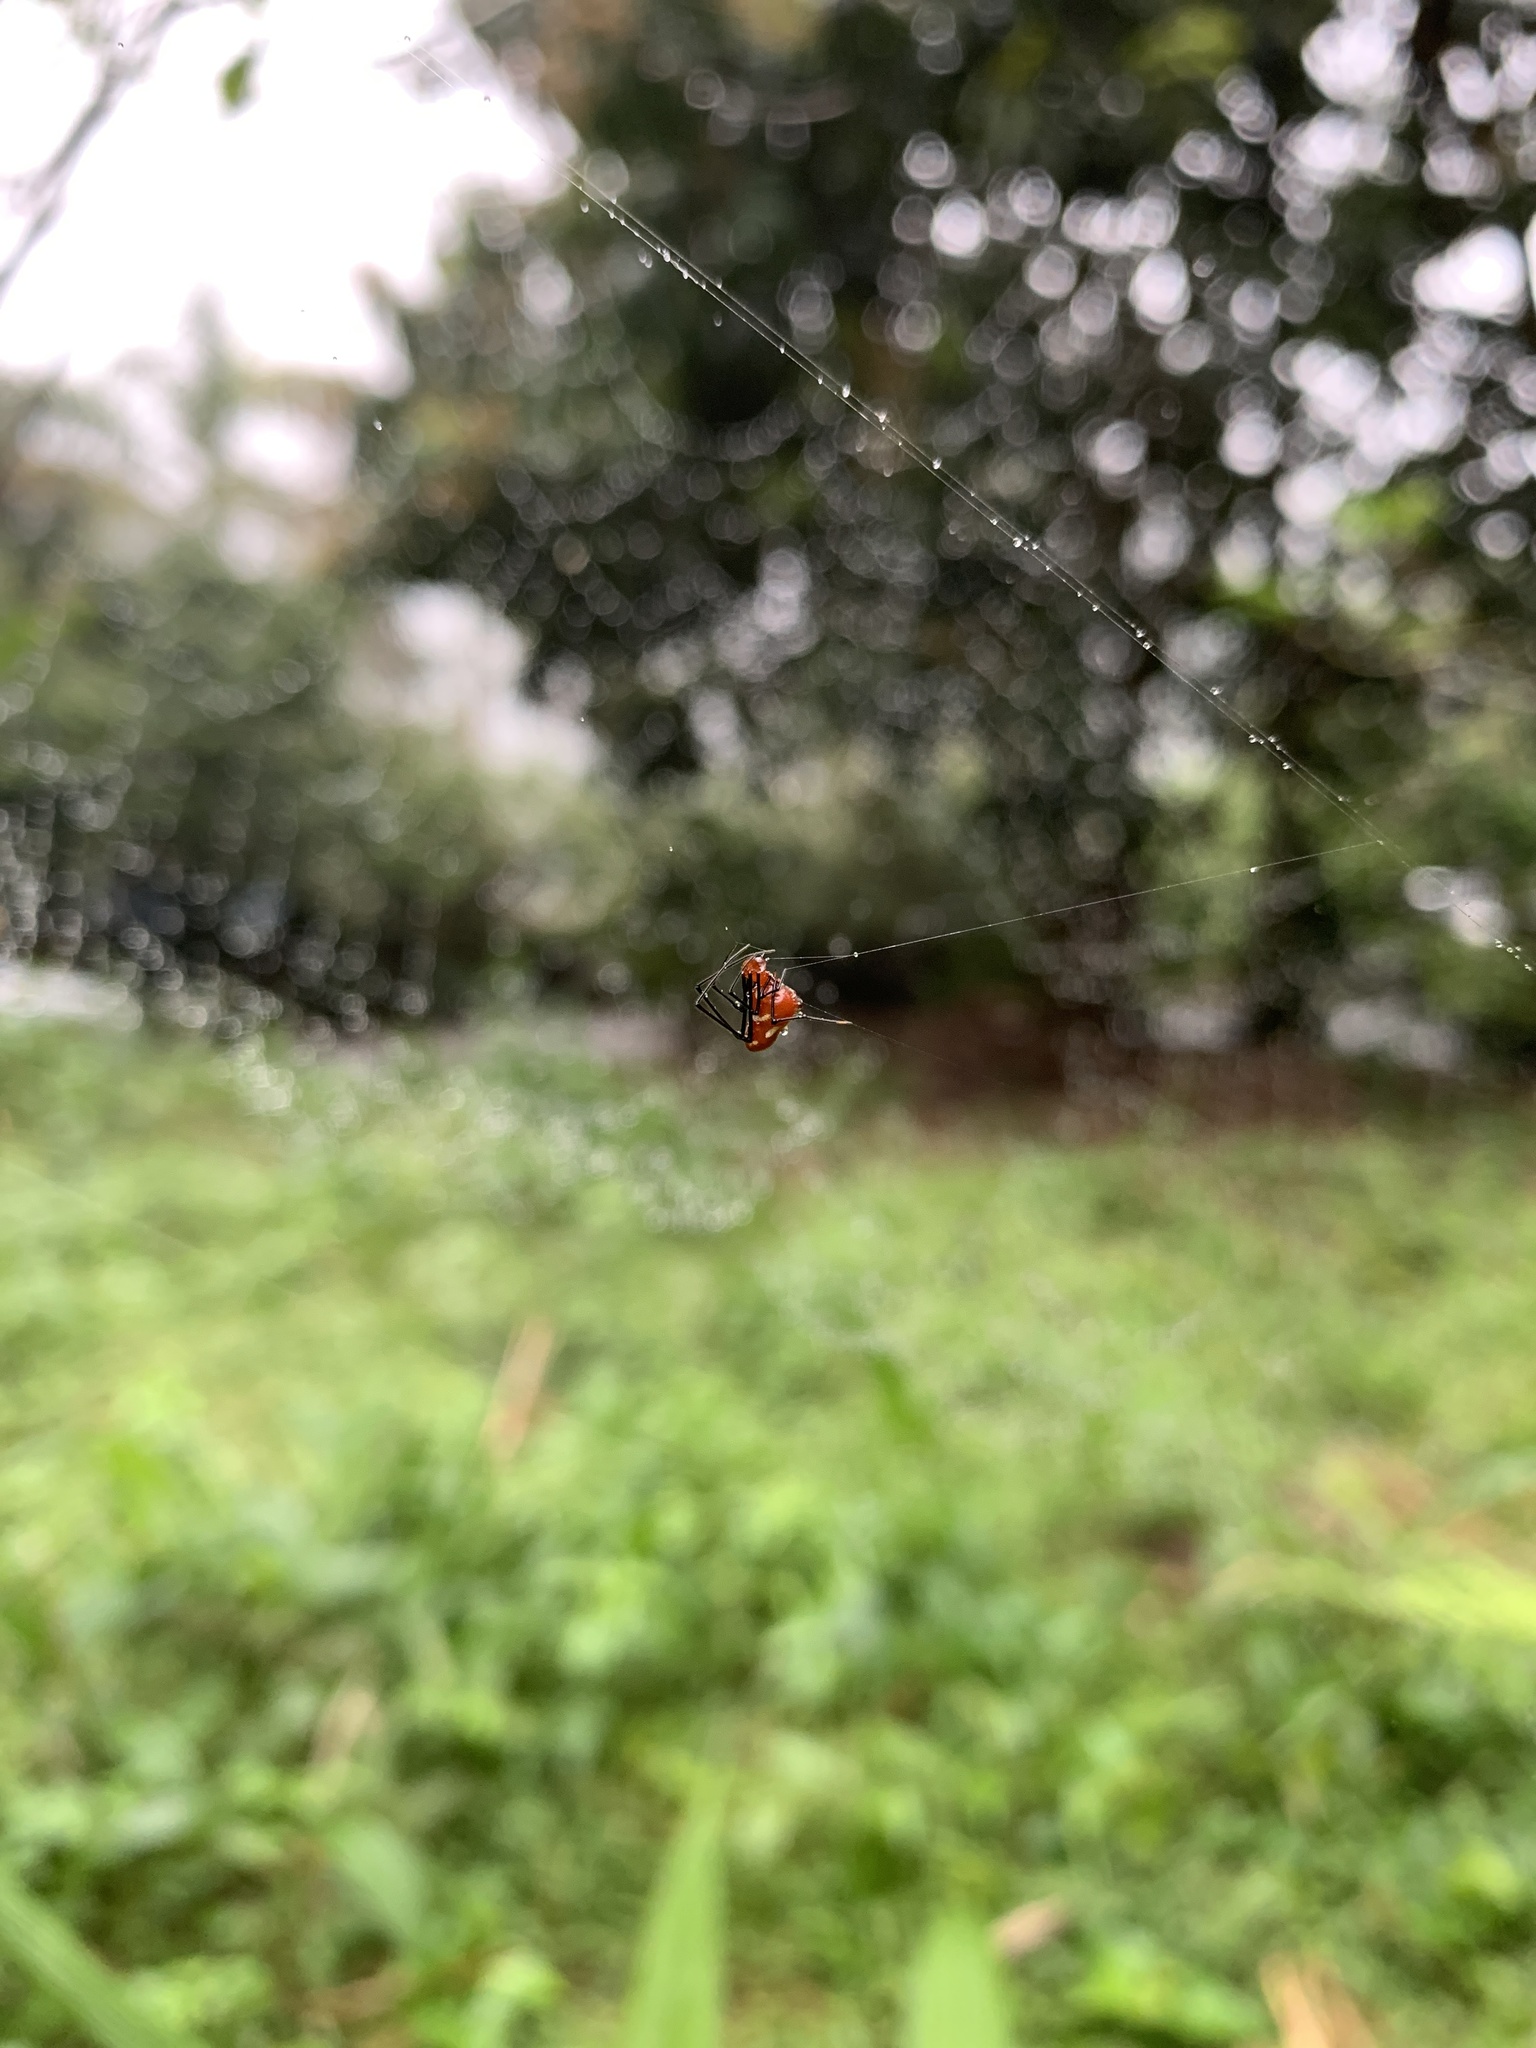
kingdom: Animalia
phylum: Arthropoda
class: Arachnida
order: Araneae
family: Theridiidae
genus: Argyrodes
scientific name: Argyrodes miniaceus
